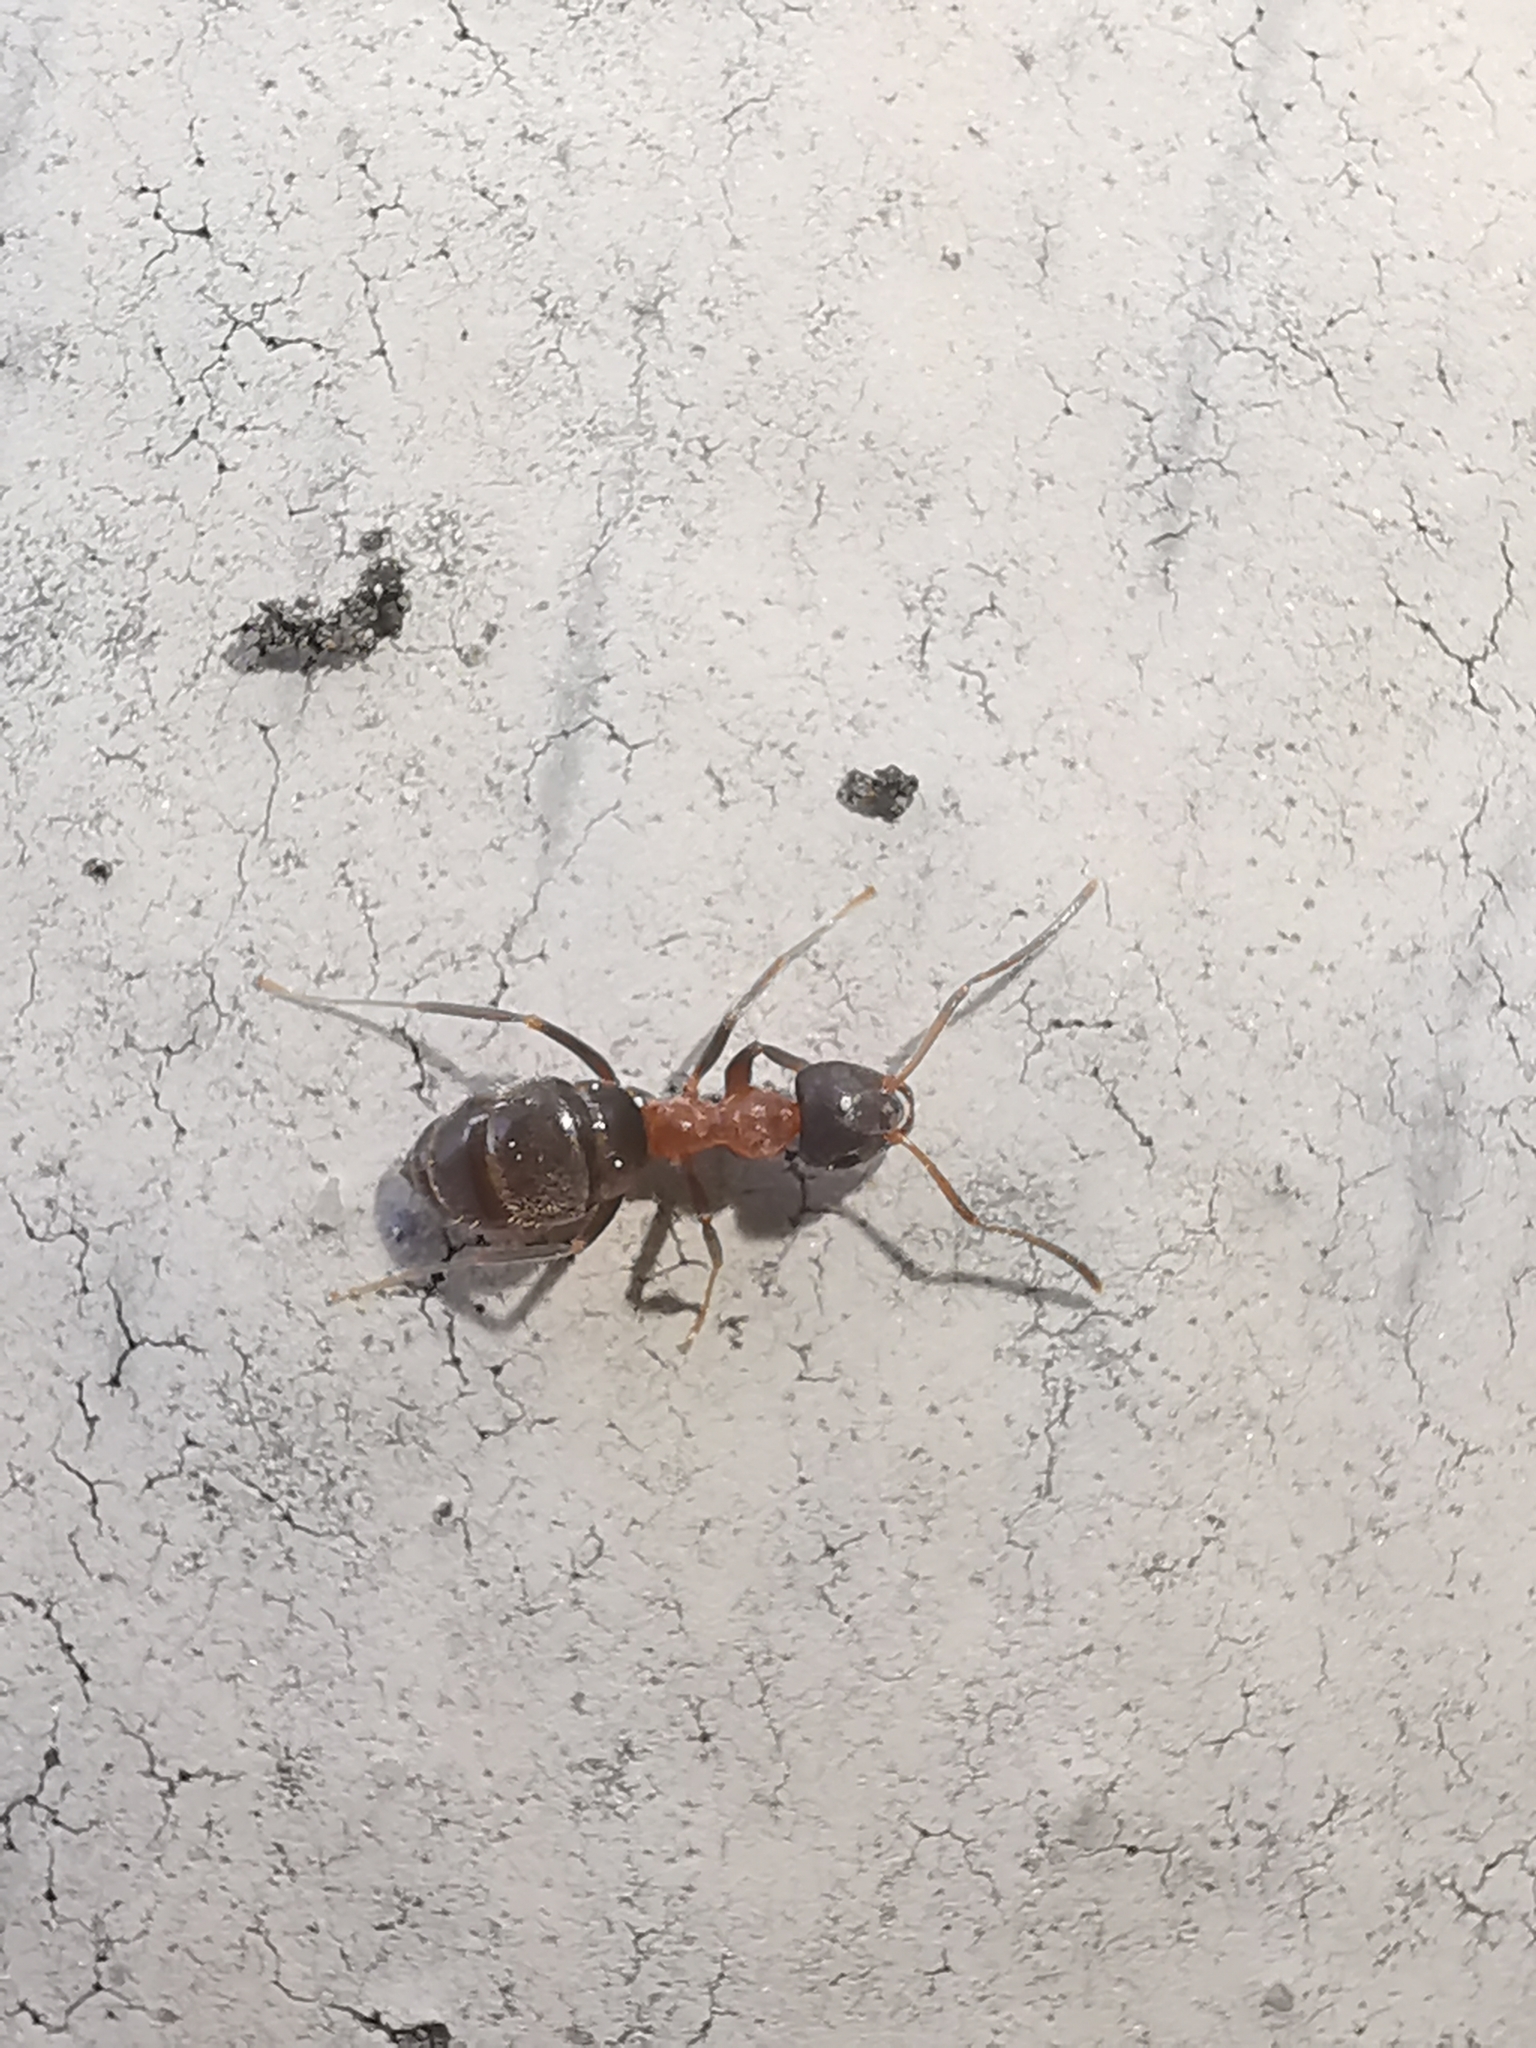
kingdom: Animalia
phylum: Arthropoda
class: Insecta
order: Hymenoptera
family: Formicidae
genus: Lasius
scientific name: Lasius emarginatus
